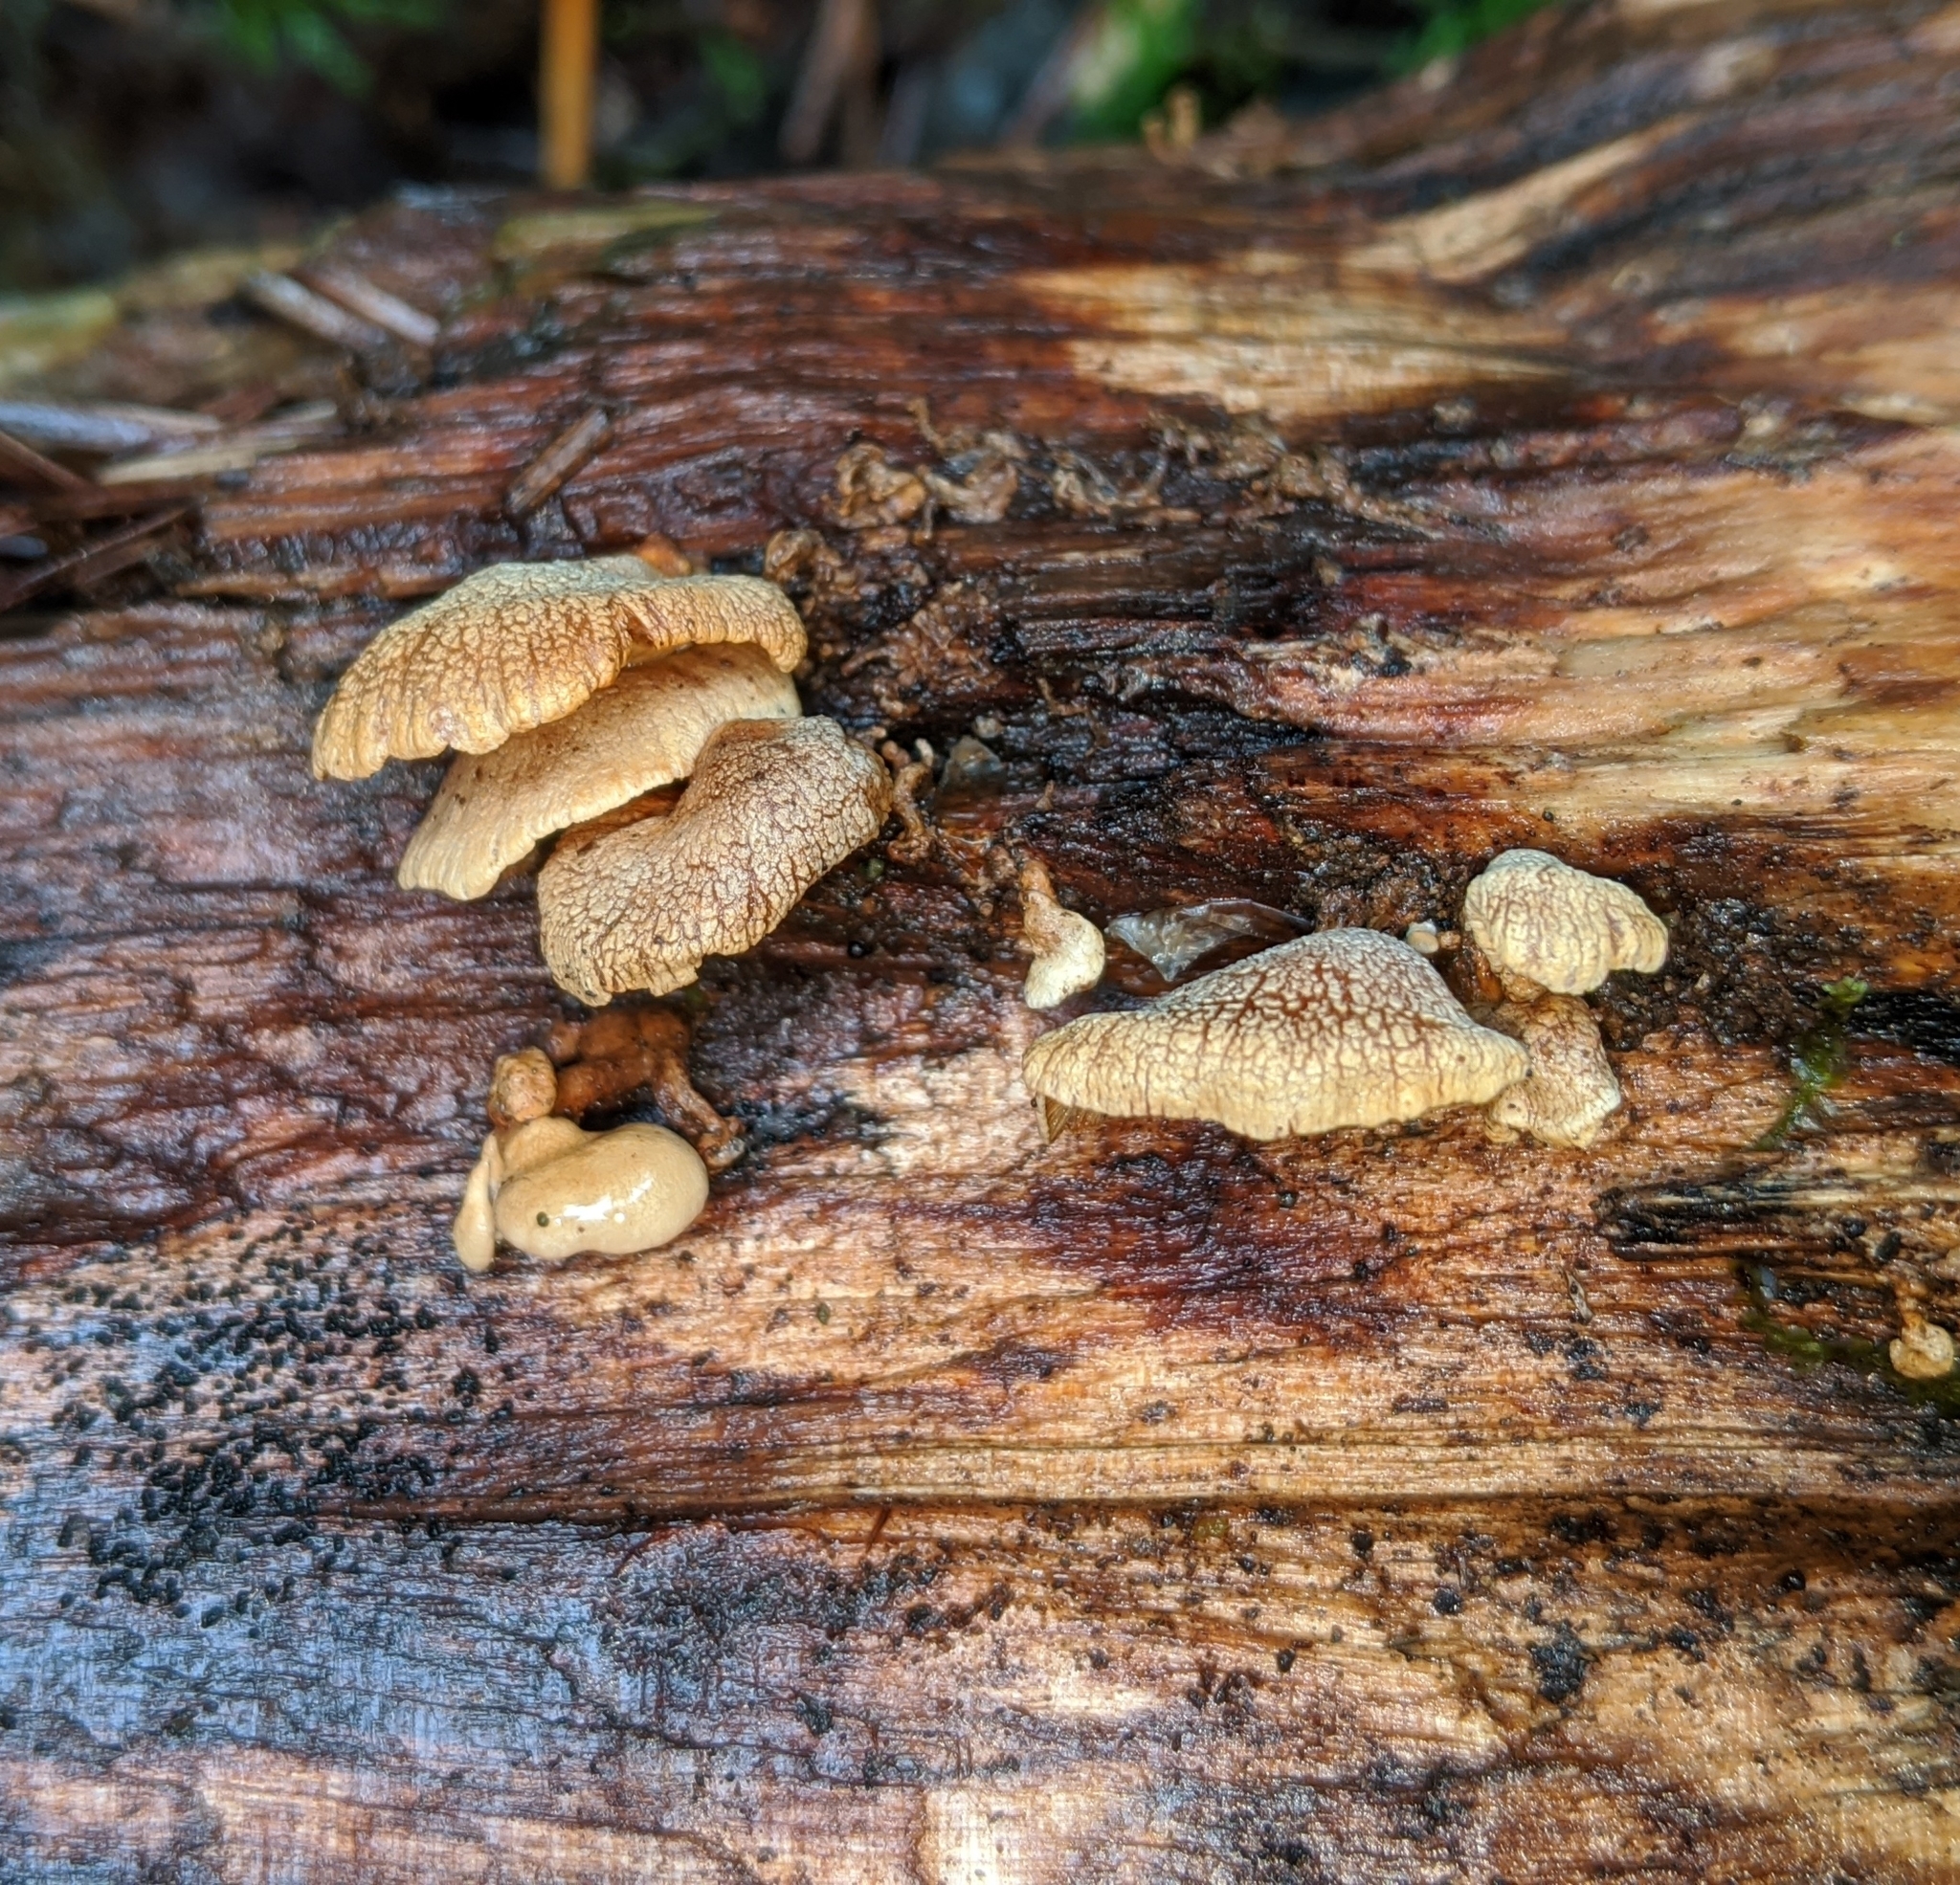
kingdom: Fungi
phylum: Basidiomycota
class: Agaricomycetes
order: Agaricales
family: Mycenaceae
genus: Panellus
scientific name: Panellus stipticus
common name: Bitter oysterling
